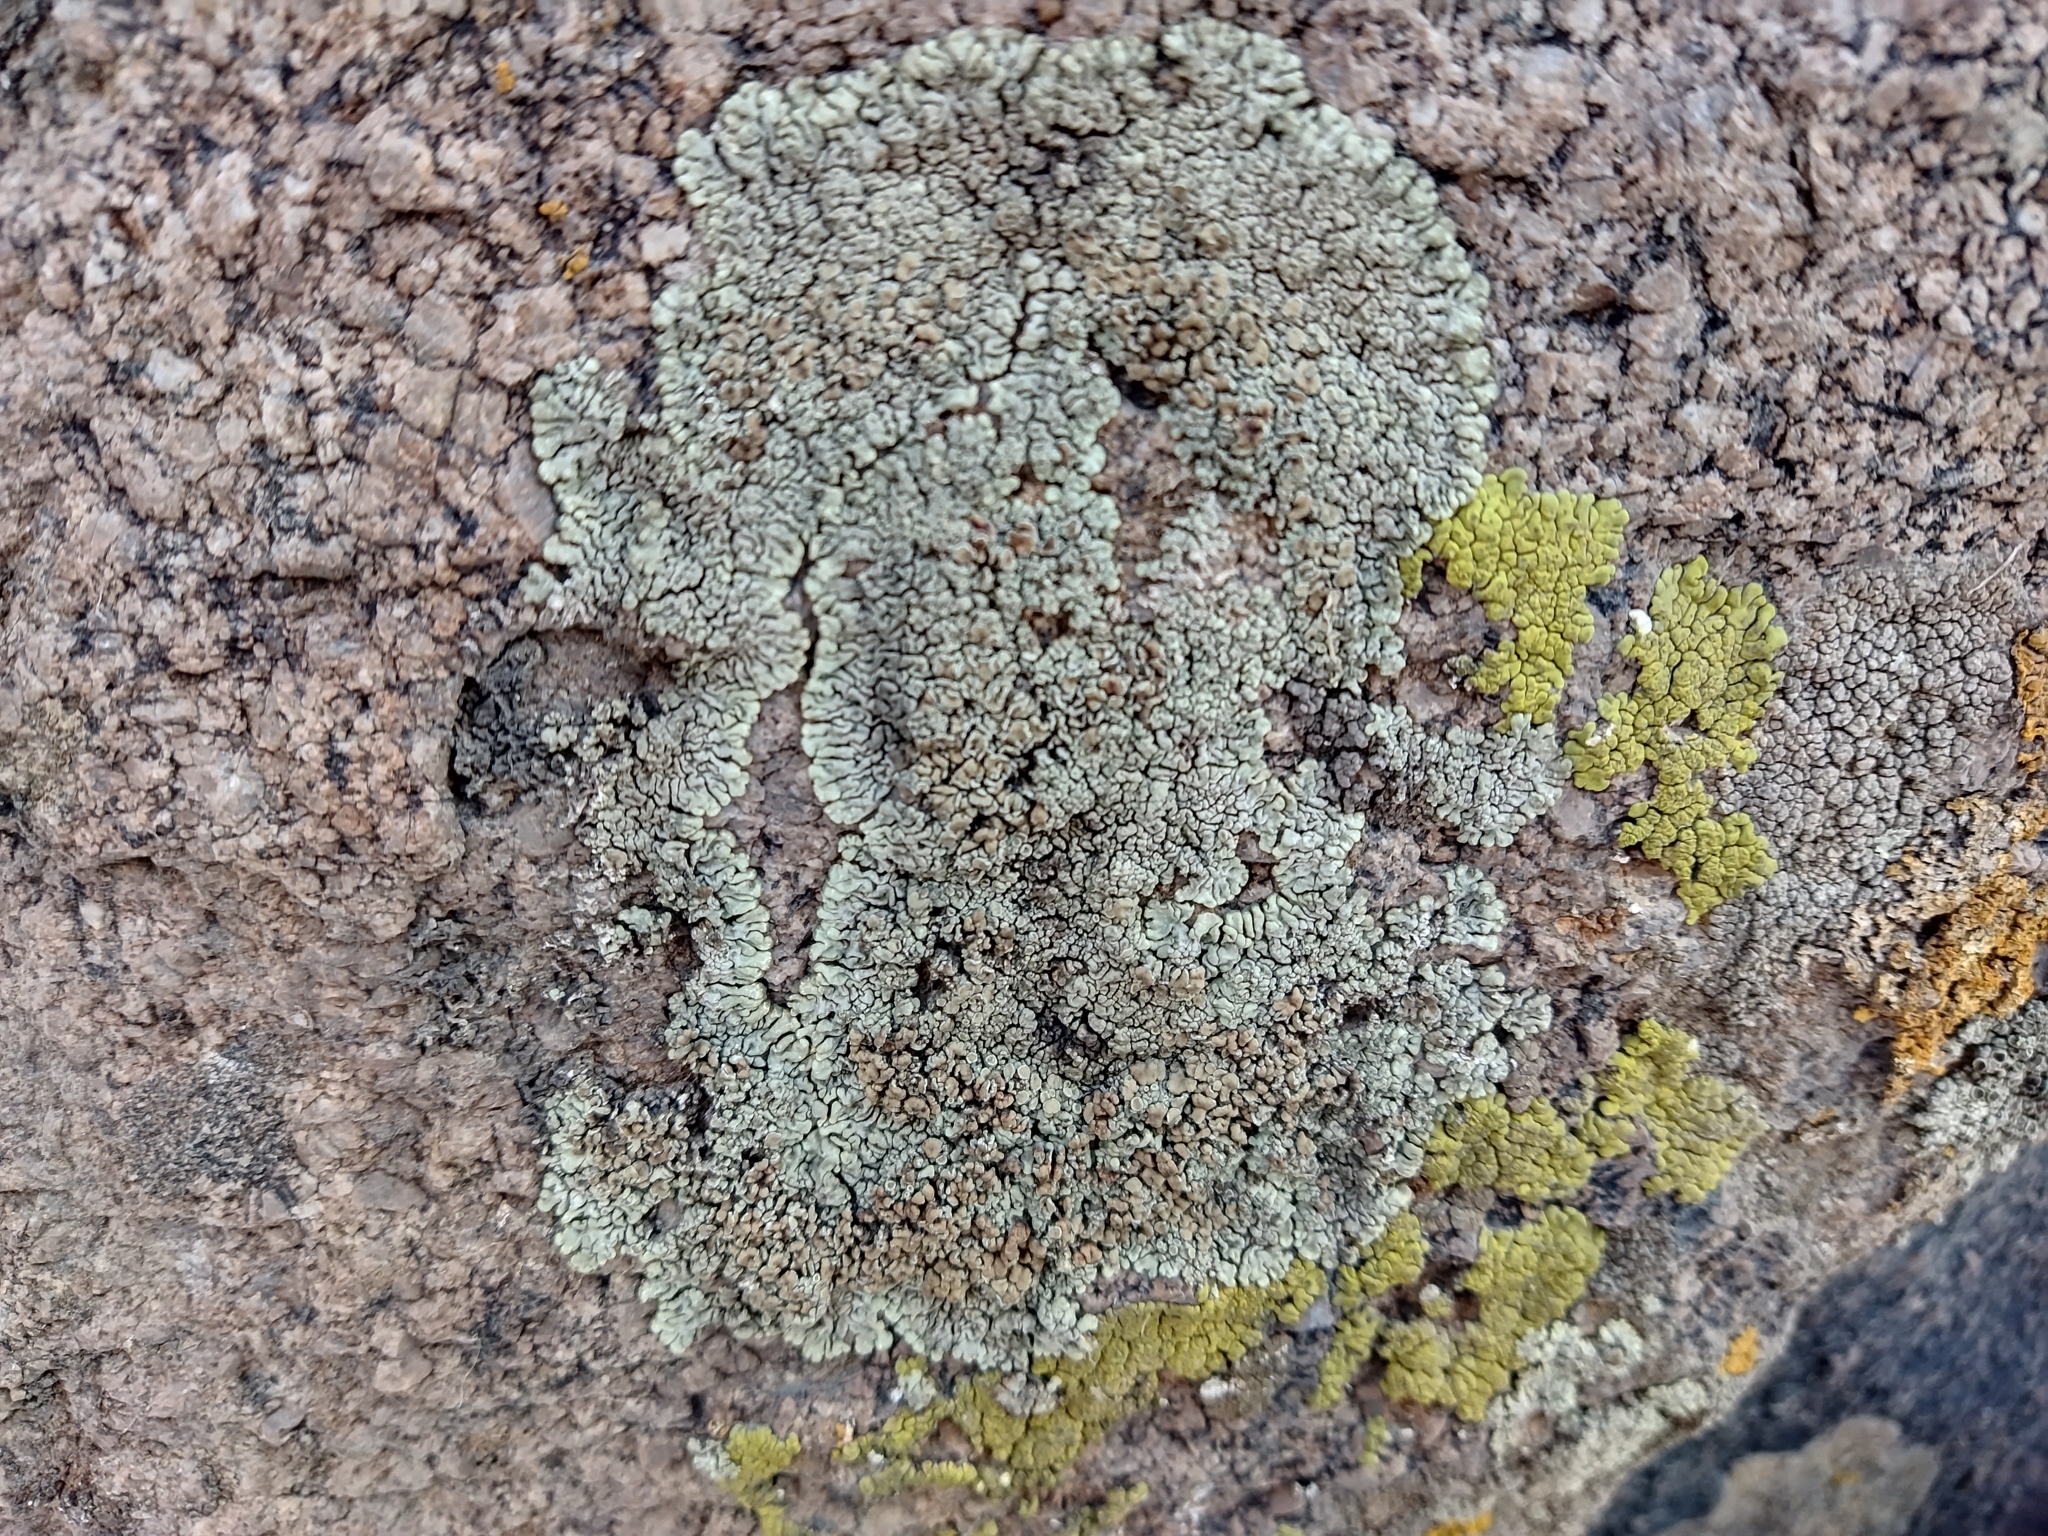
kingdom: Fungi
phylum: Ascomycota
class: Lecanoromycetes
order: Lecanorales
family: Lecanoraceae
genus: Protoparmeliopsis
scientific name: Protoparmeliopsis muralis
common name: Stonewall rim lichen
